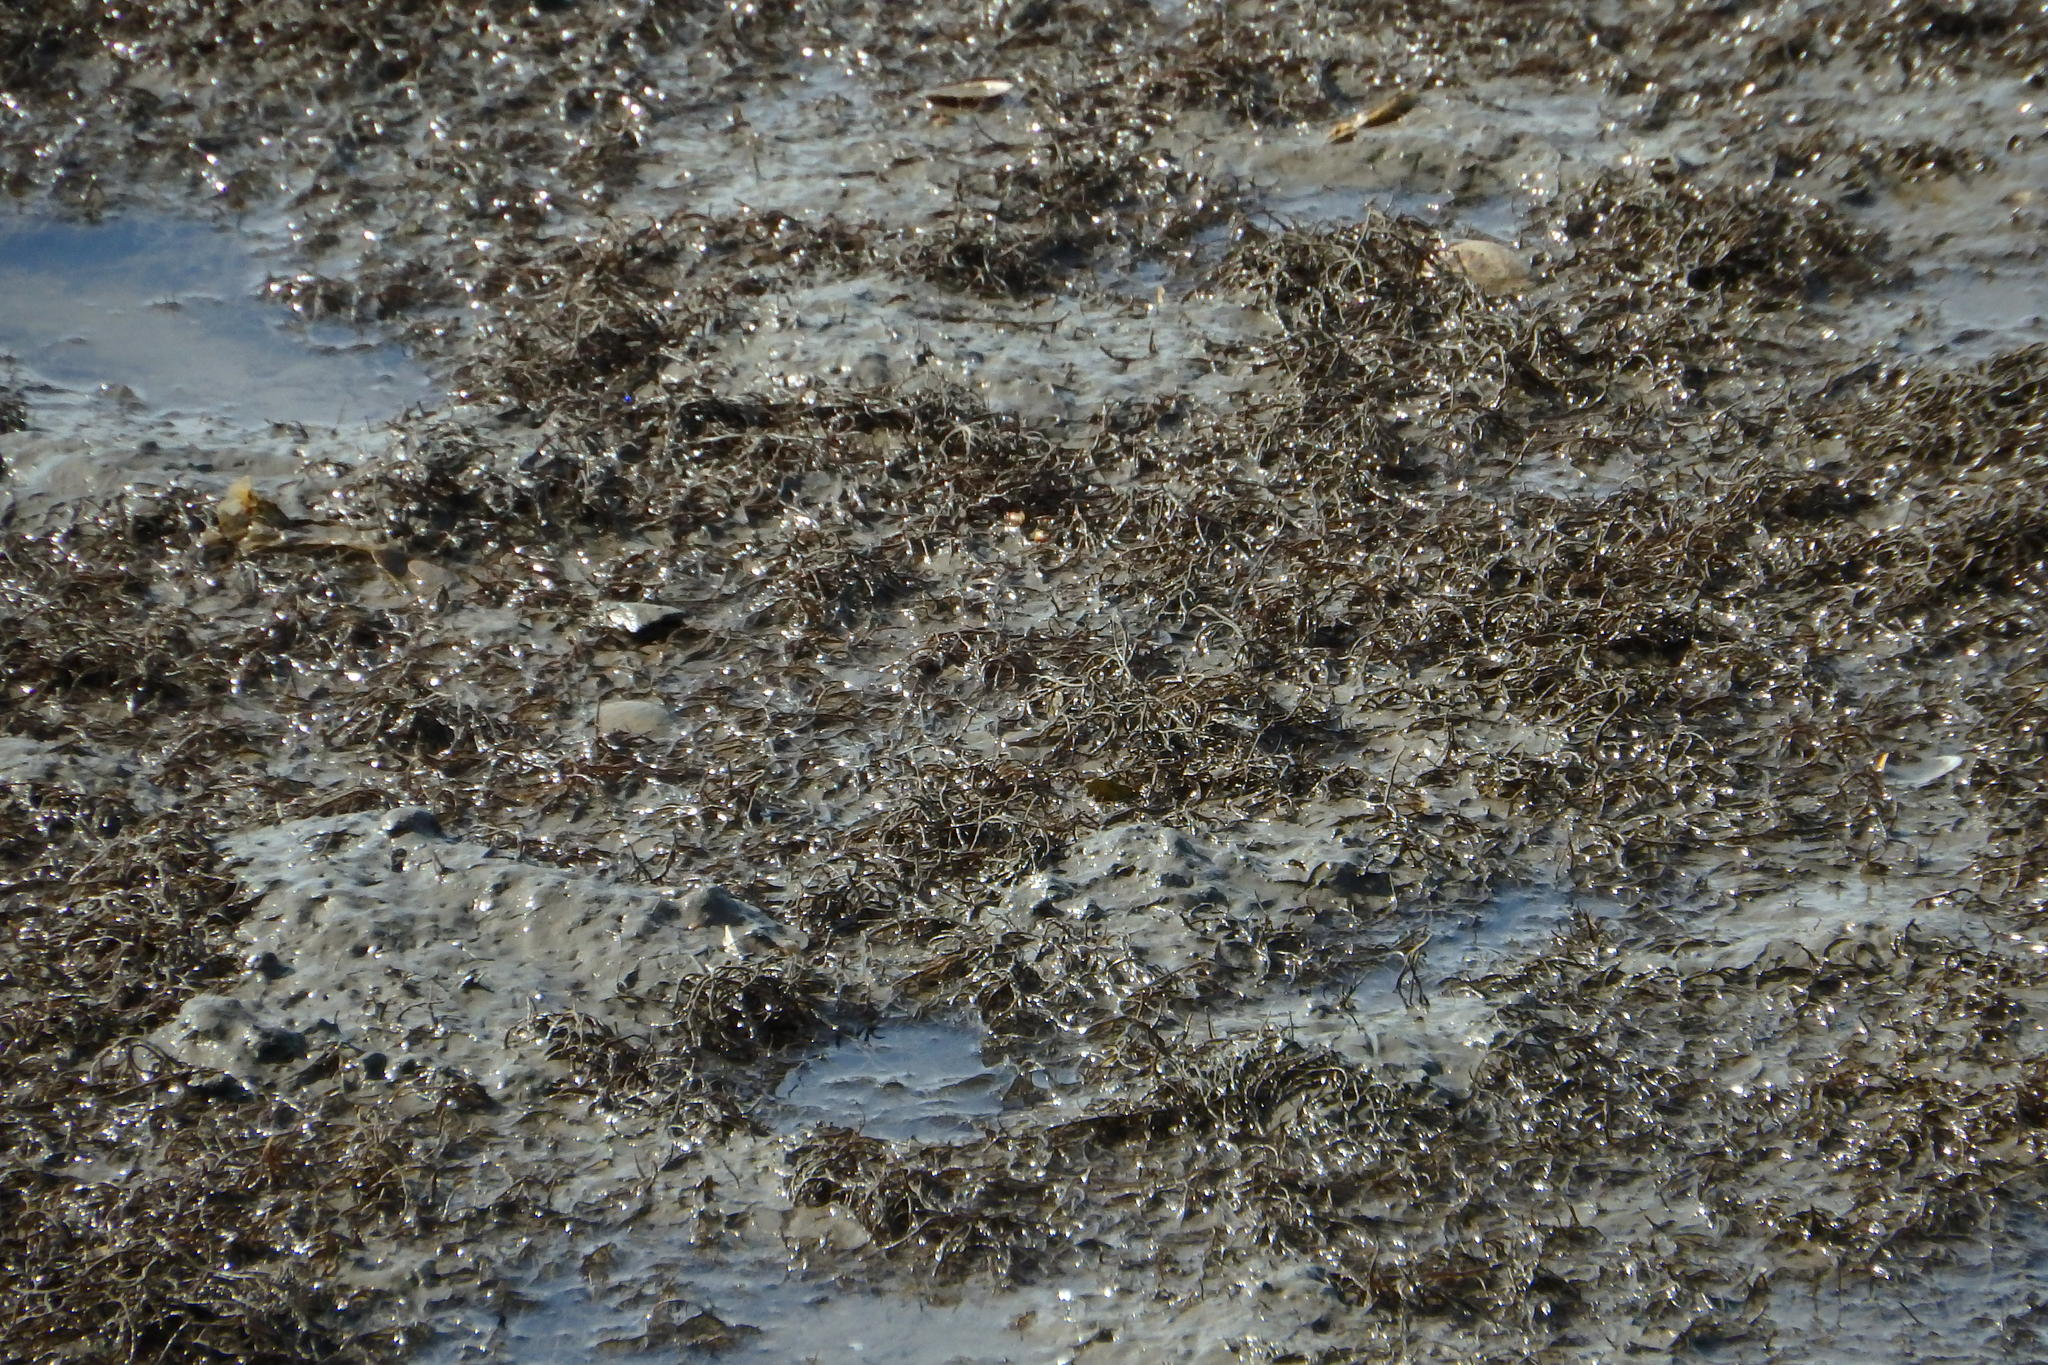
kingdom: Plantae
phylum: Rhodophyta
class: Florideophyceae
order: Gracilariales
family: Gracilariaceae
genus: Gracilaria
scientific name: Gracilaria vermiculophylla
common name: Algae
